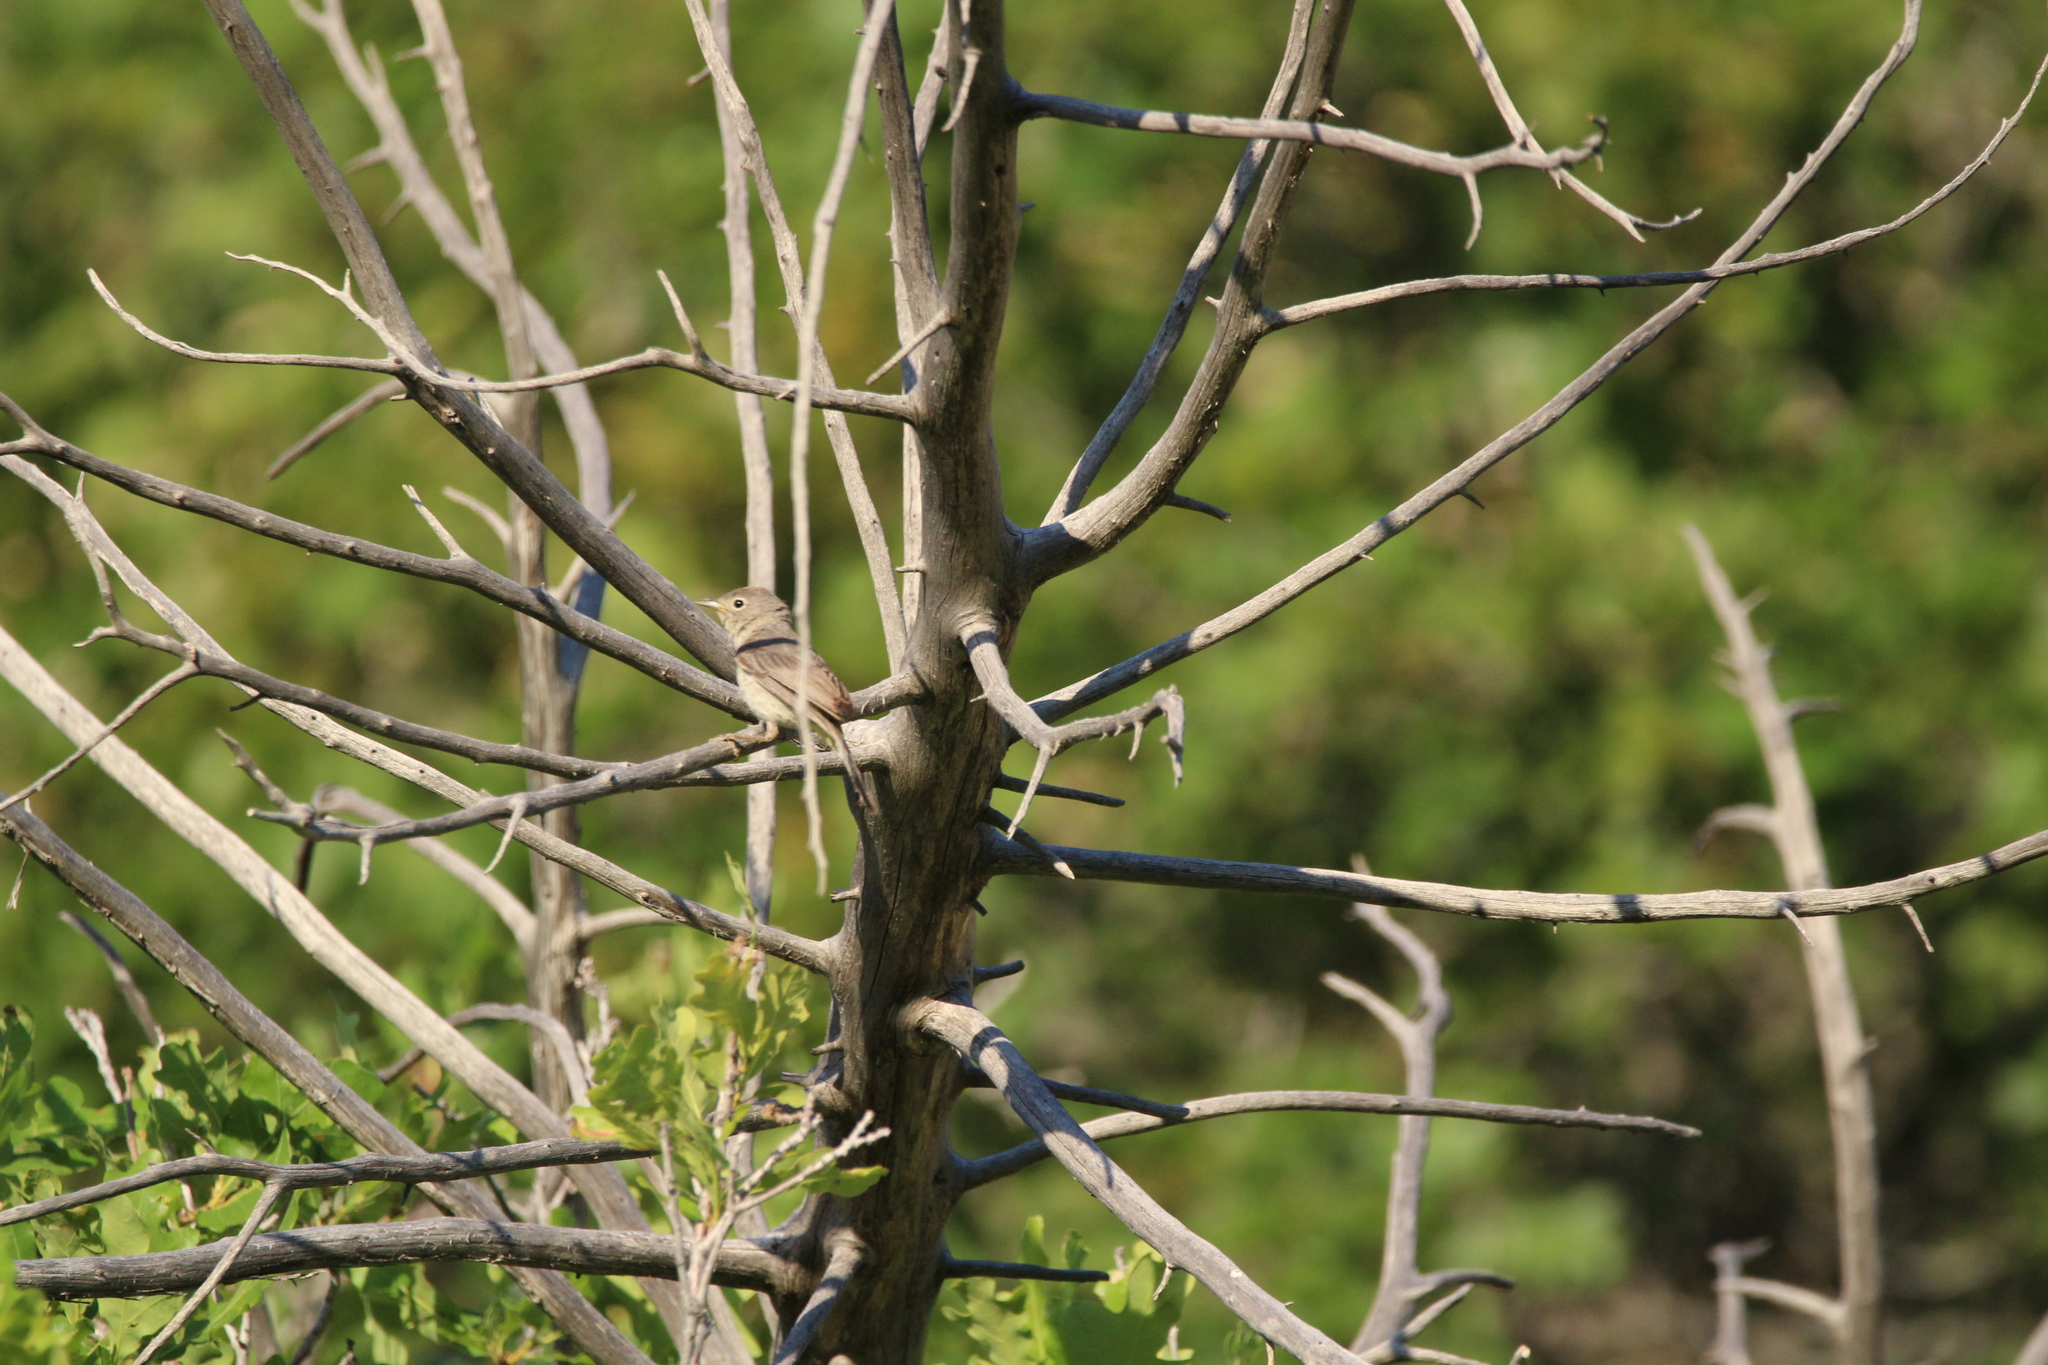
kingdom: Animalia
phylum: Chordata
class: Aves
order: Passeriformes
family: Parulidae
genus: Leiothlypis
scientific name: Leiothlypis virginiae
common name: Virginia's warbler
